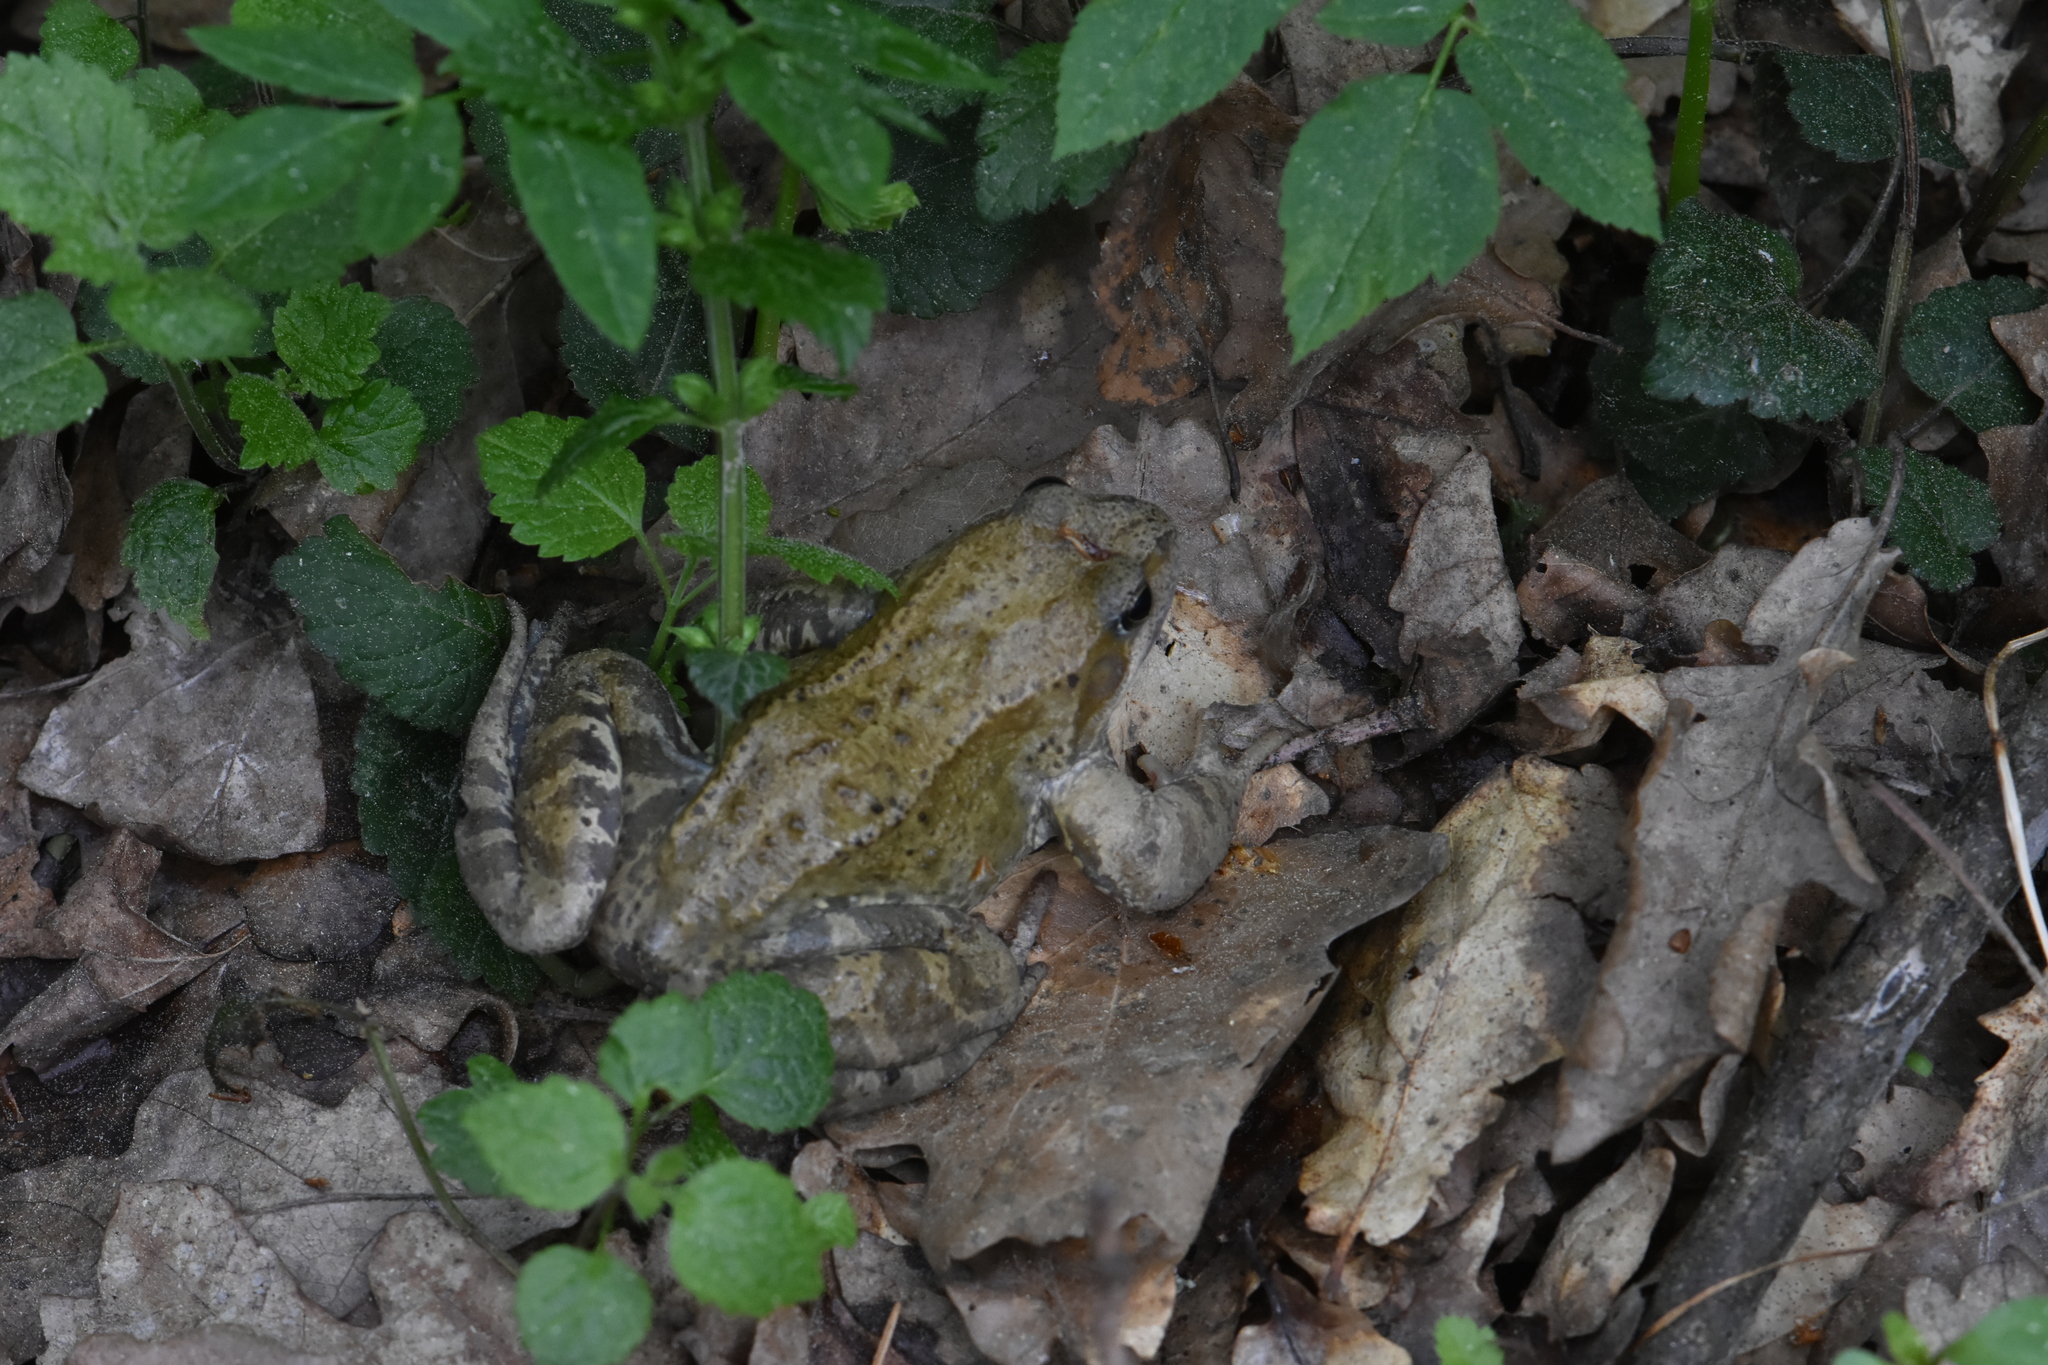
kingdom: Animalia
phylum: Chordata
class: Amphibia
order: Anura
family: Ranidae
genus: Rana
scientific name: Rana temporaria
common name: Common frog
